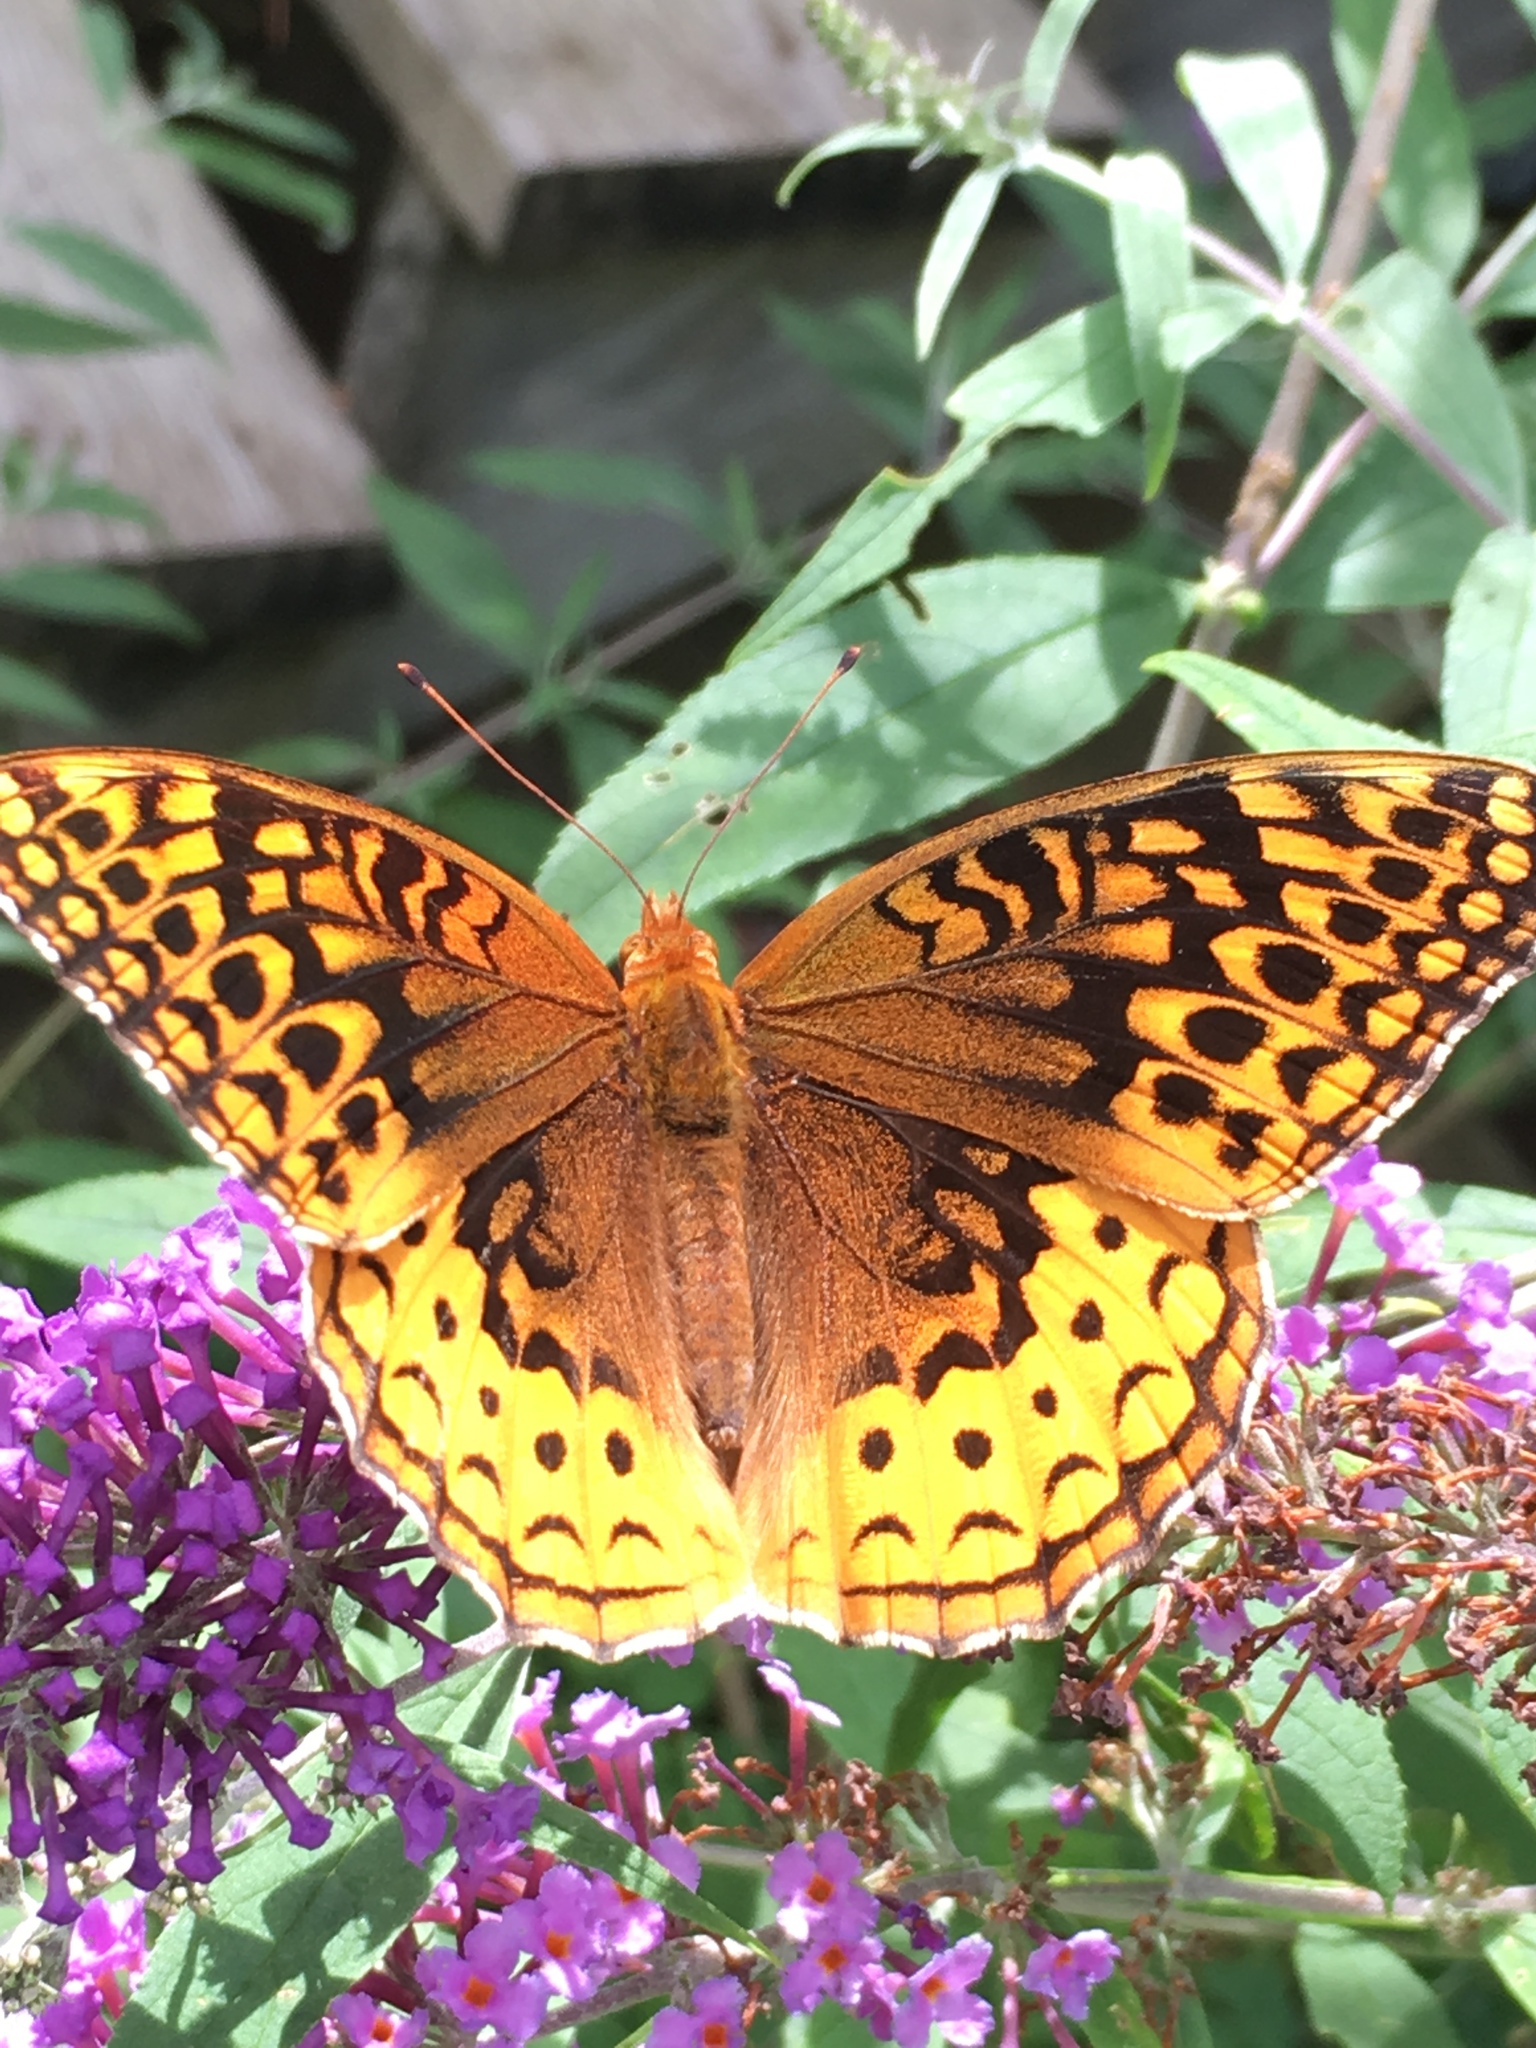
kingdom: Animalia
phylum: Arthropoda
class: Insecta
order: Lepidoptera
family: Nymphalidae
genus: Speyeria
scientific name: Speyeria cybele
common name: Great spangled fritillary
